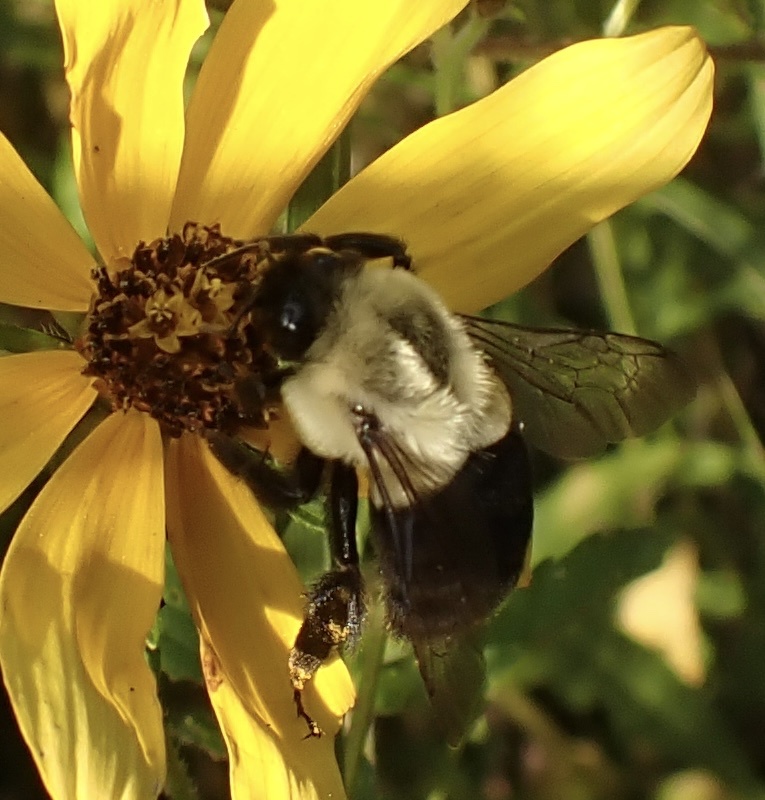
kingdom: Animalia
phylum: Arthropoda
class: Insecta
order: Hymenoptera
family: Apidae
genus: Bombus
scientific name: Bombus impatiens
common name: Common eastern bumble bee
